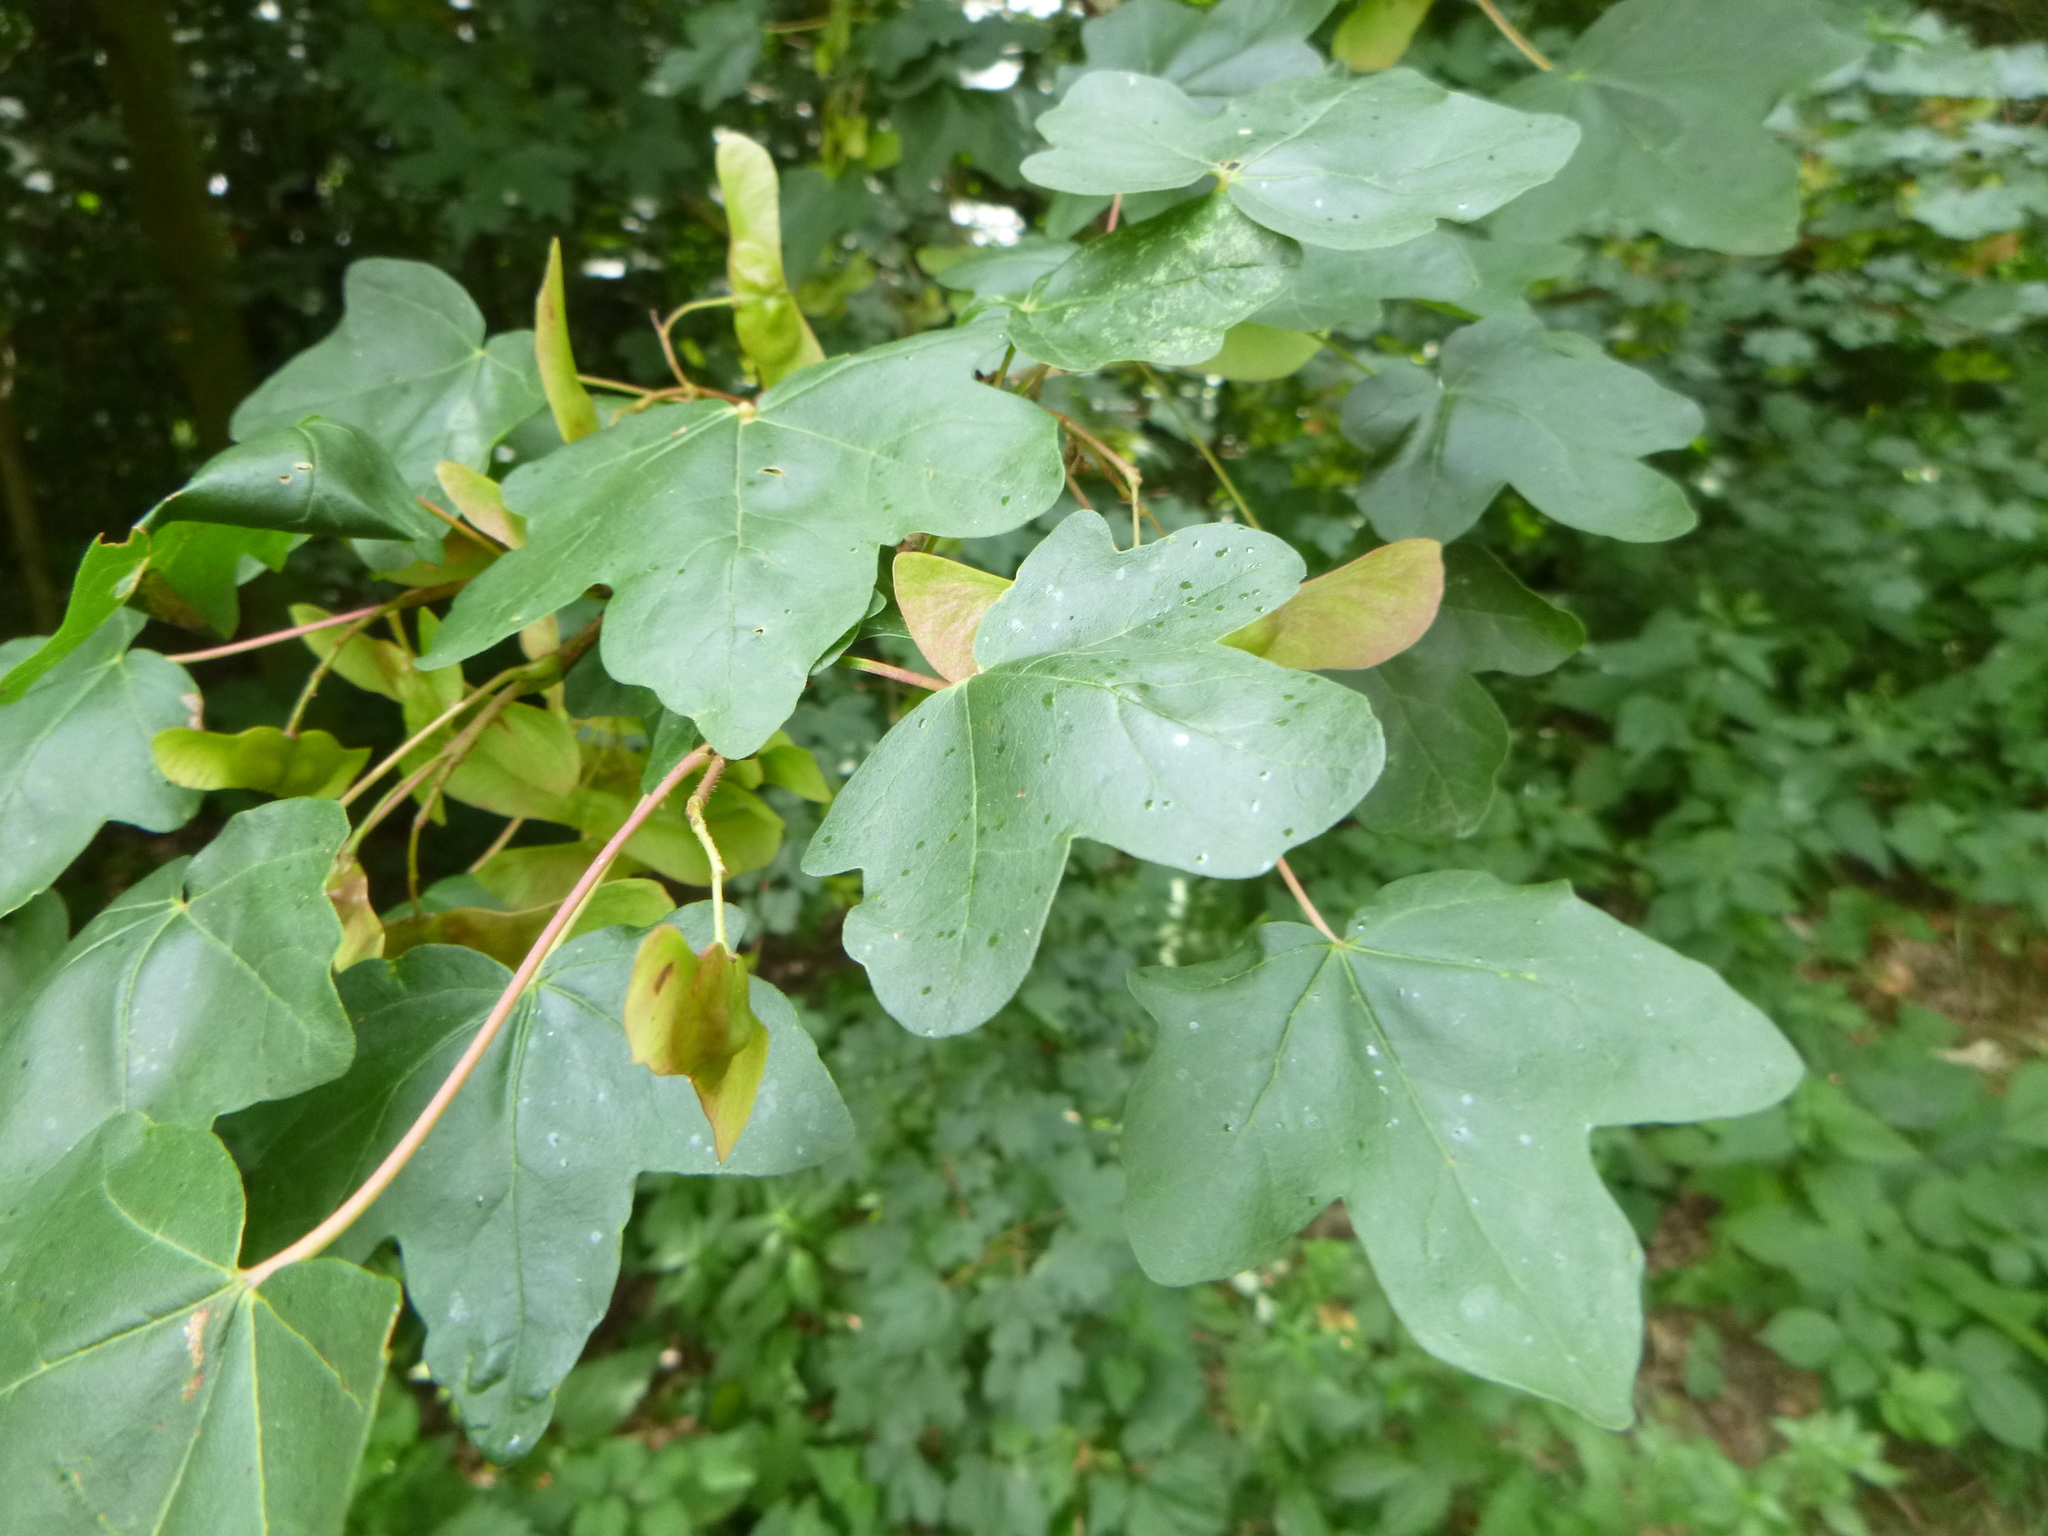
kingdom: Plantae
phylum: Tracheophyta
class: Magnoliopsida
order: Sapindales
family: Sapindaceae
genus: Acer
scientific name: Acer campestre
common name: Field maple
